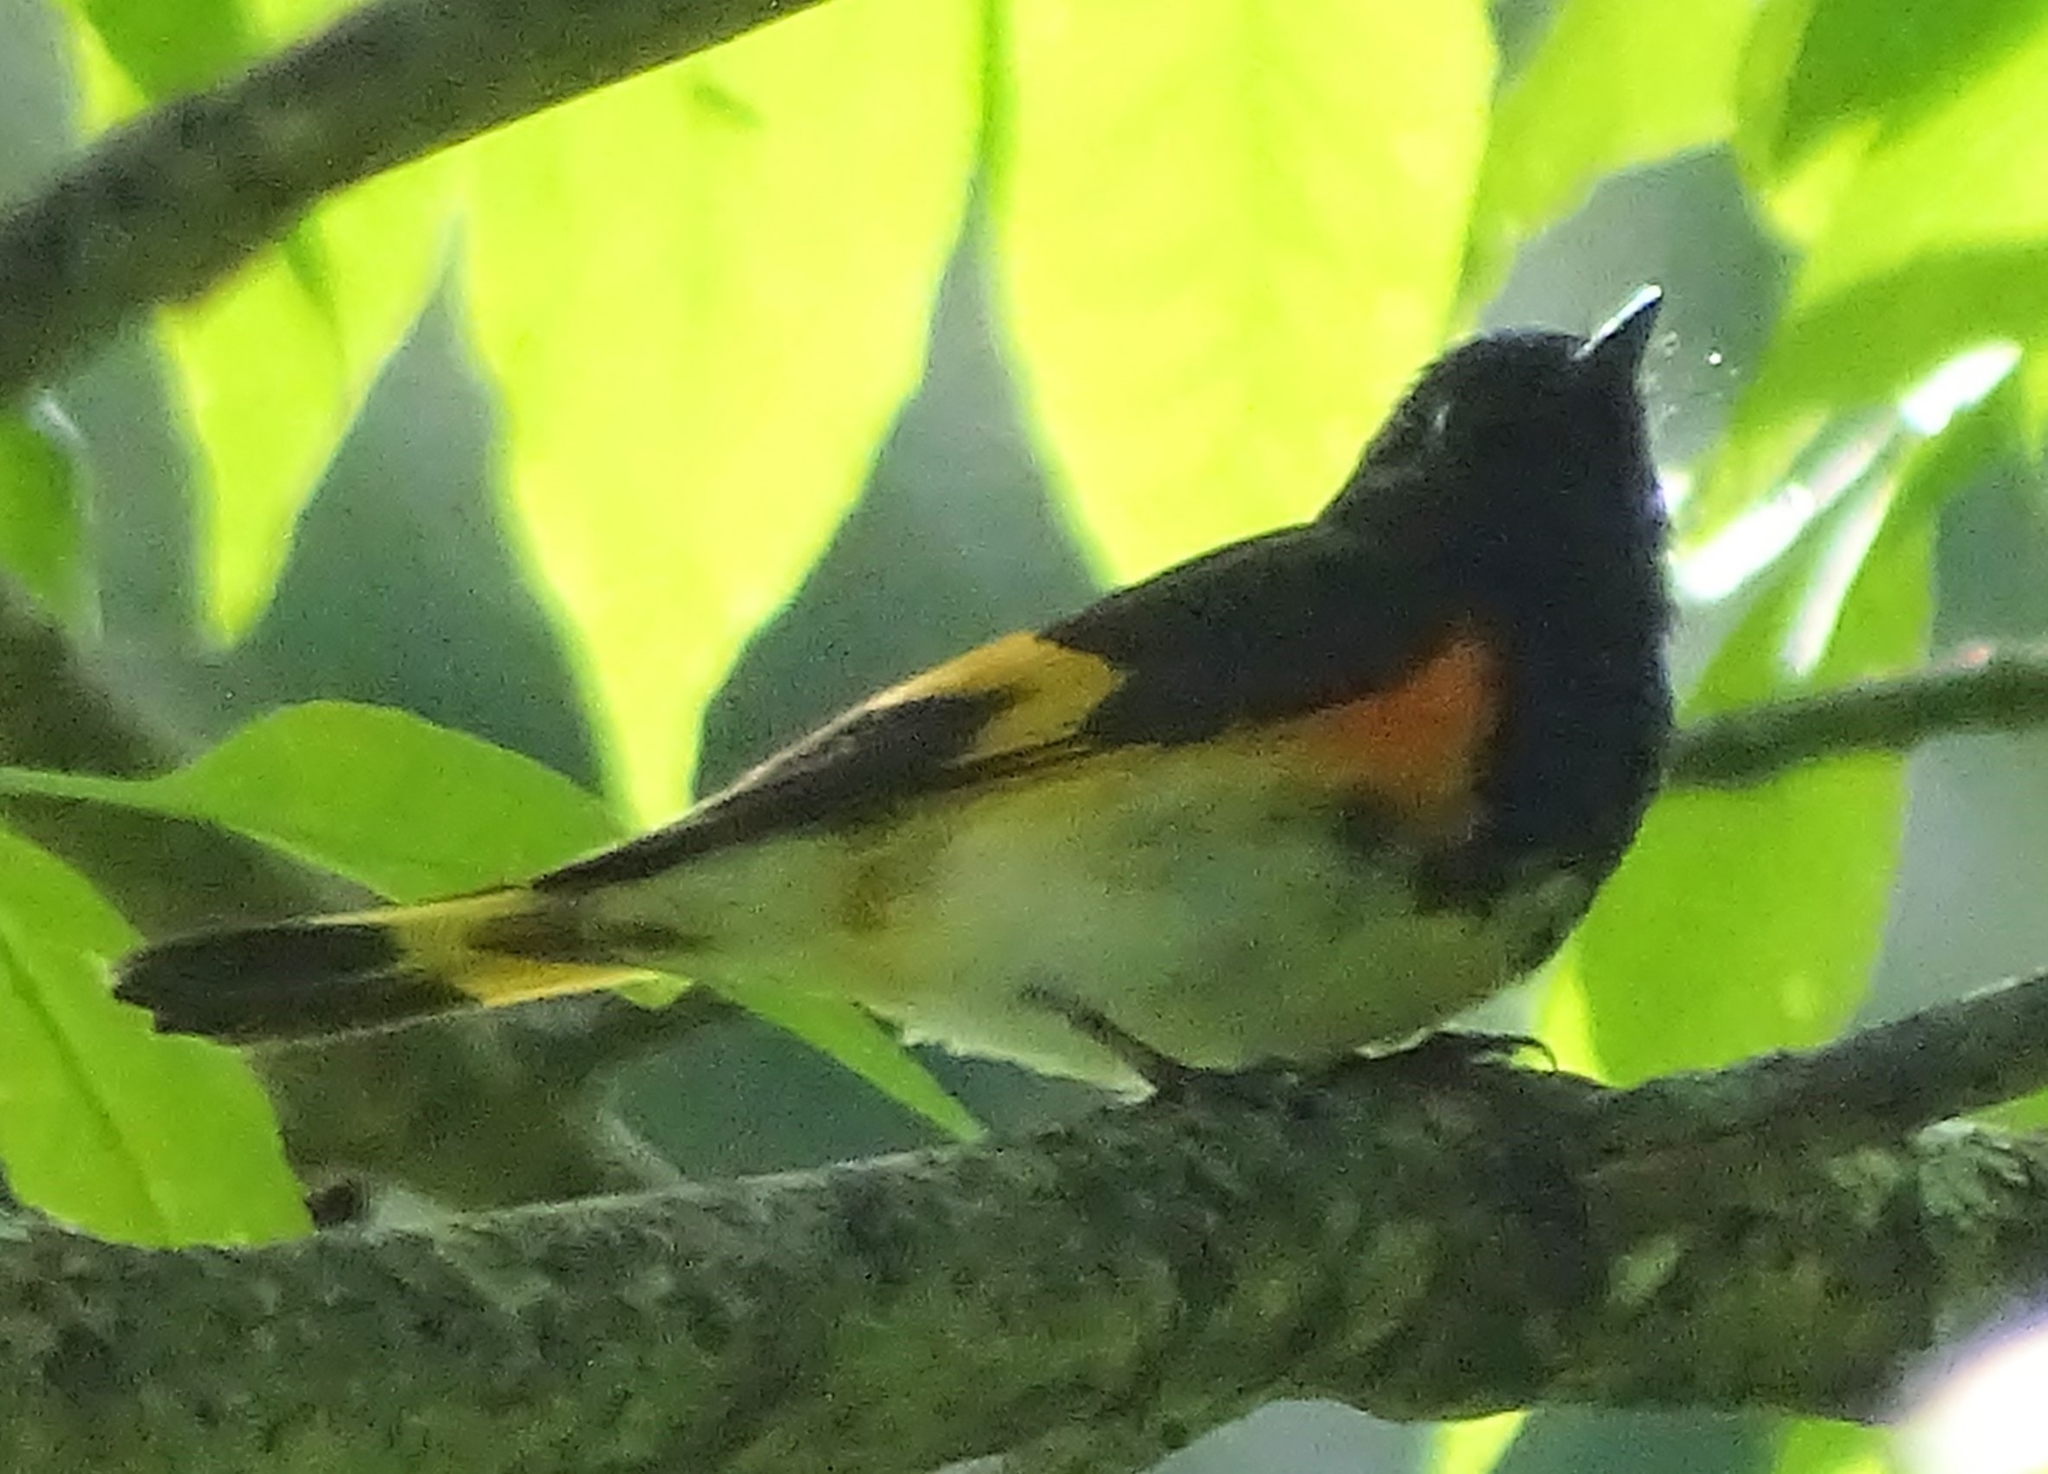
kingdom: Animalia
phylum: Chordata
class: Aves
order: Passeriformes
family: Parulidae
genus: Setophaga
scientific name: Setophaga ruticilla
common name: American redstart
